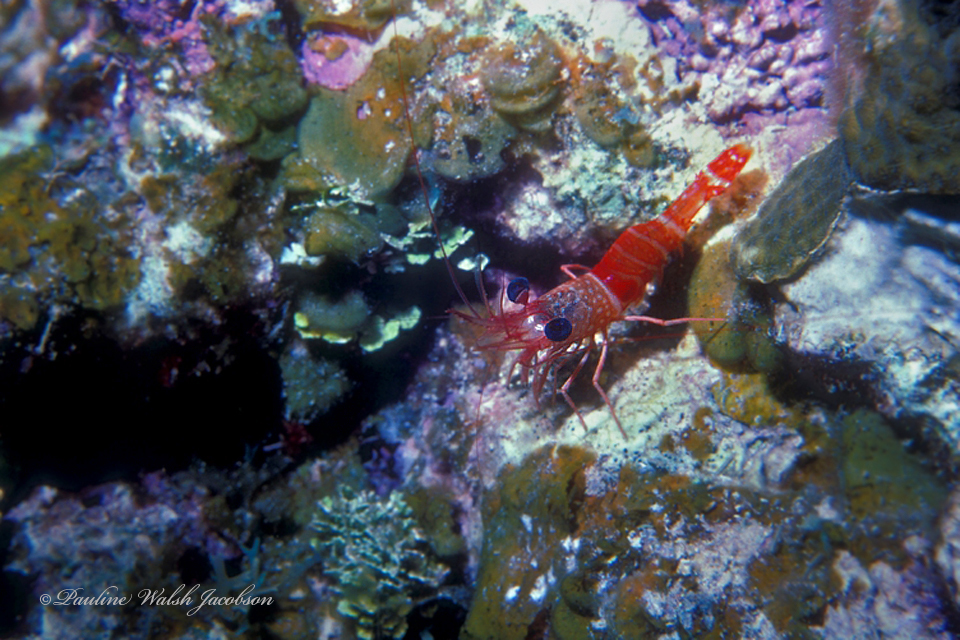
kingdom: Animalia
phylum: Arthropoda
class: Malacostraca
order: Decapoda
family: Rhynchocinetidae
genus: Cinetorhynchus
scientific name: Cinetorhynchus manningi
